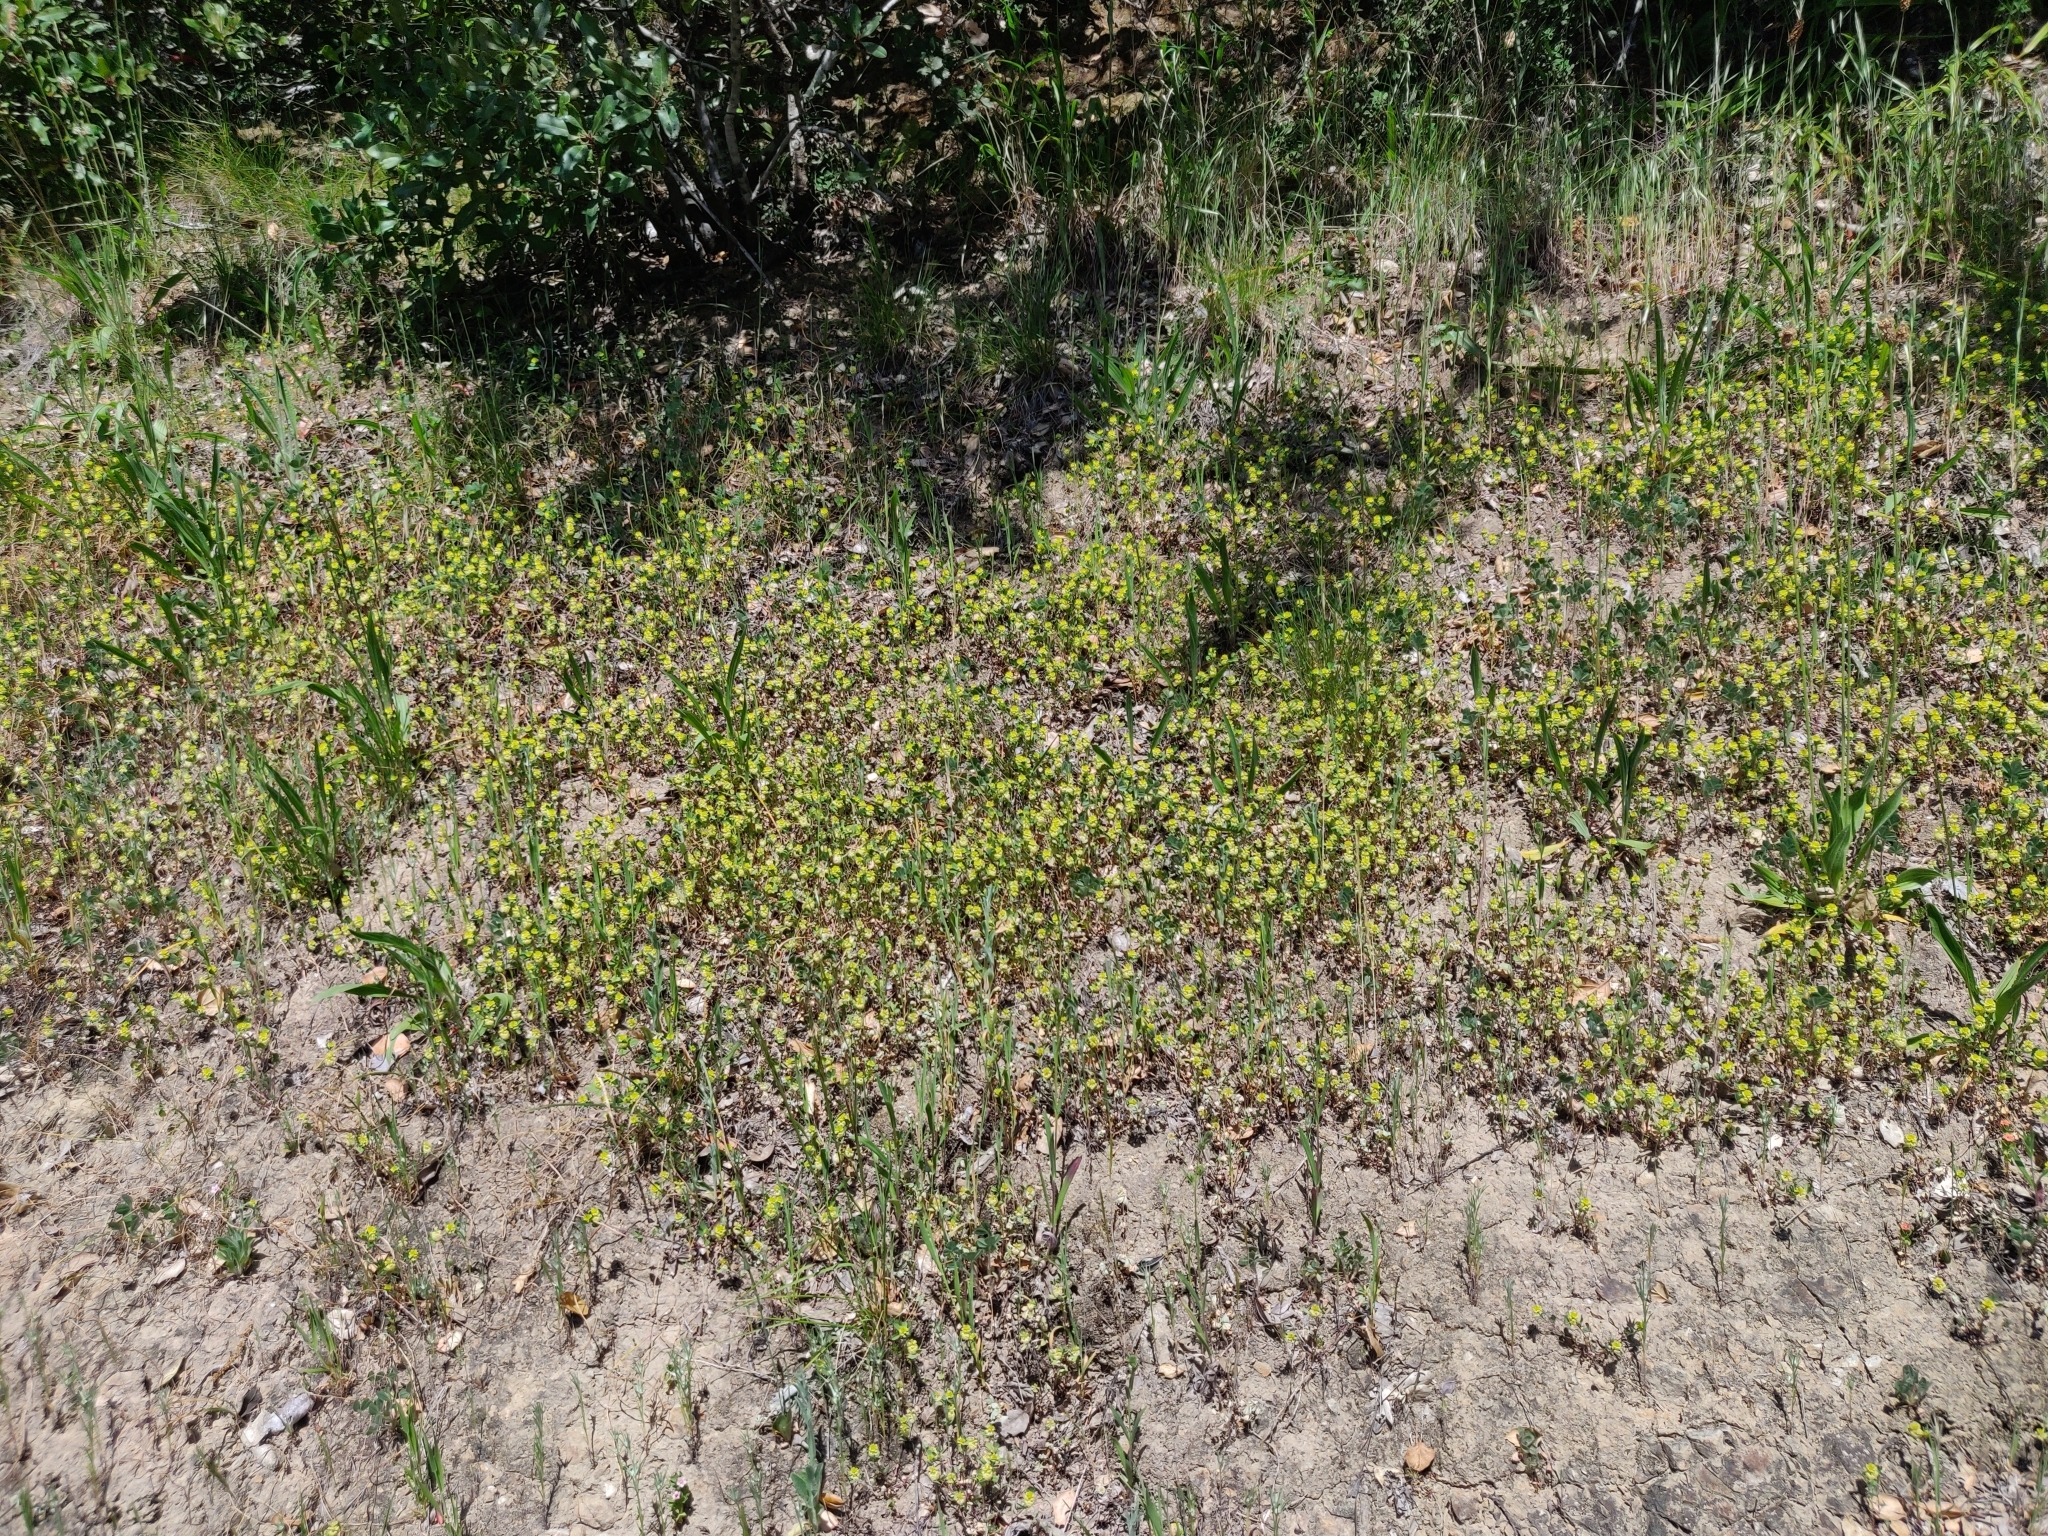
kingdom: Plantae
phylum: Tracheophyta
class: Magnoliopsida
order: Fabales
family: Fabaceae
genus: Trifolium
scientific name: Trifolium campestre
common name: Field clover
